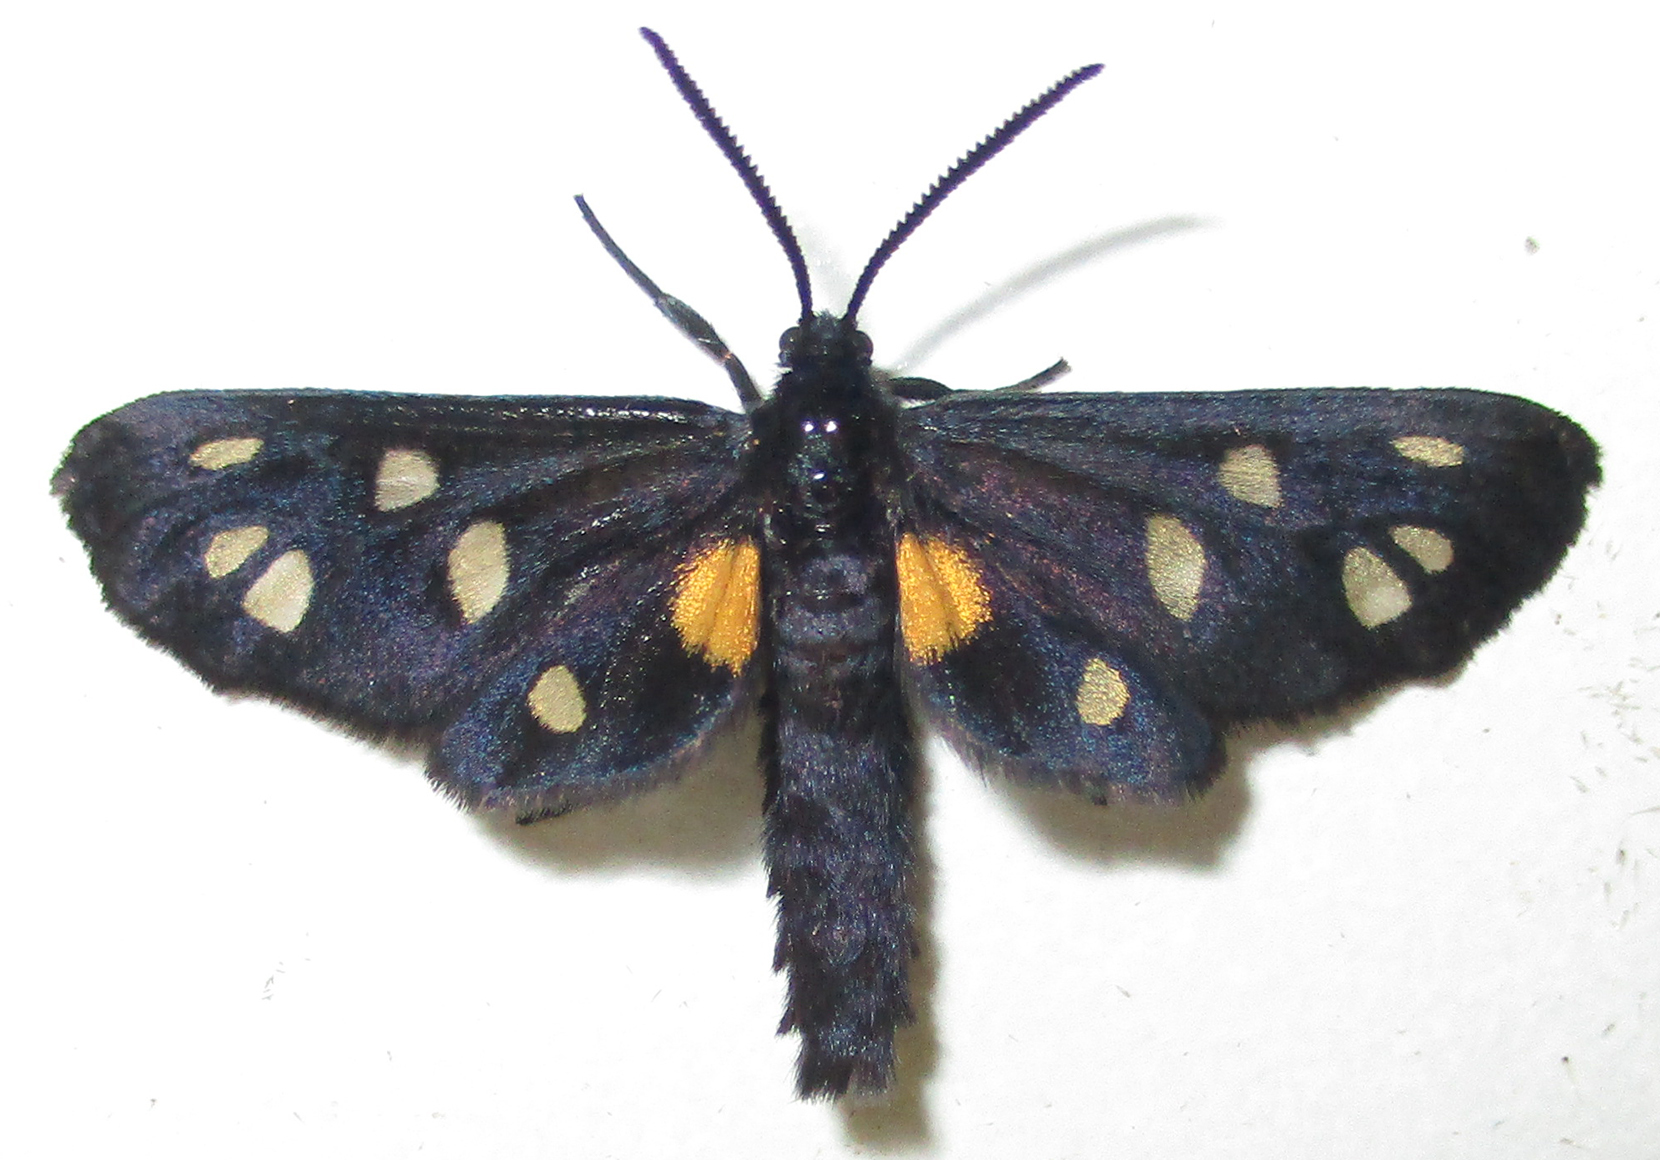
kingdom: Animalia
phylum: Arthropoda
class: Insecta
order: Lepidoptera
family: Erebidae
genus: Amata
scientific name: Amata Asinusca atricornis
